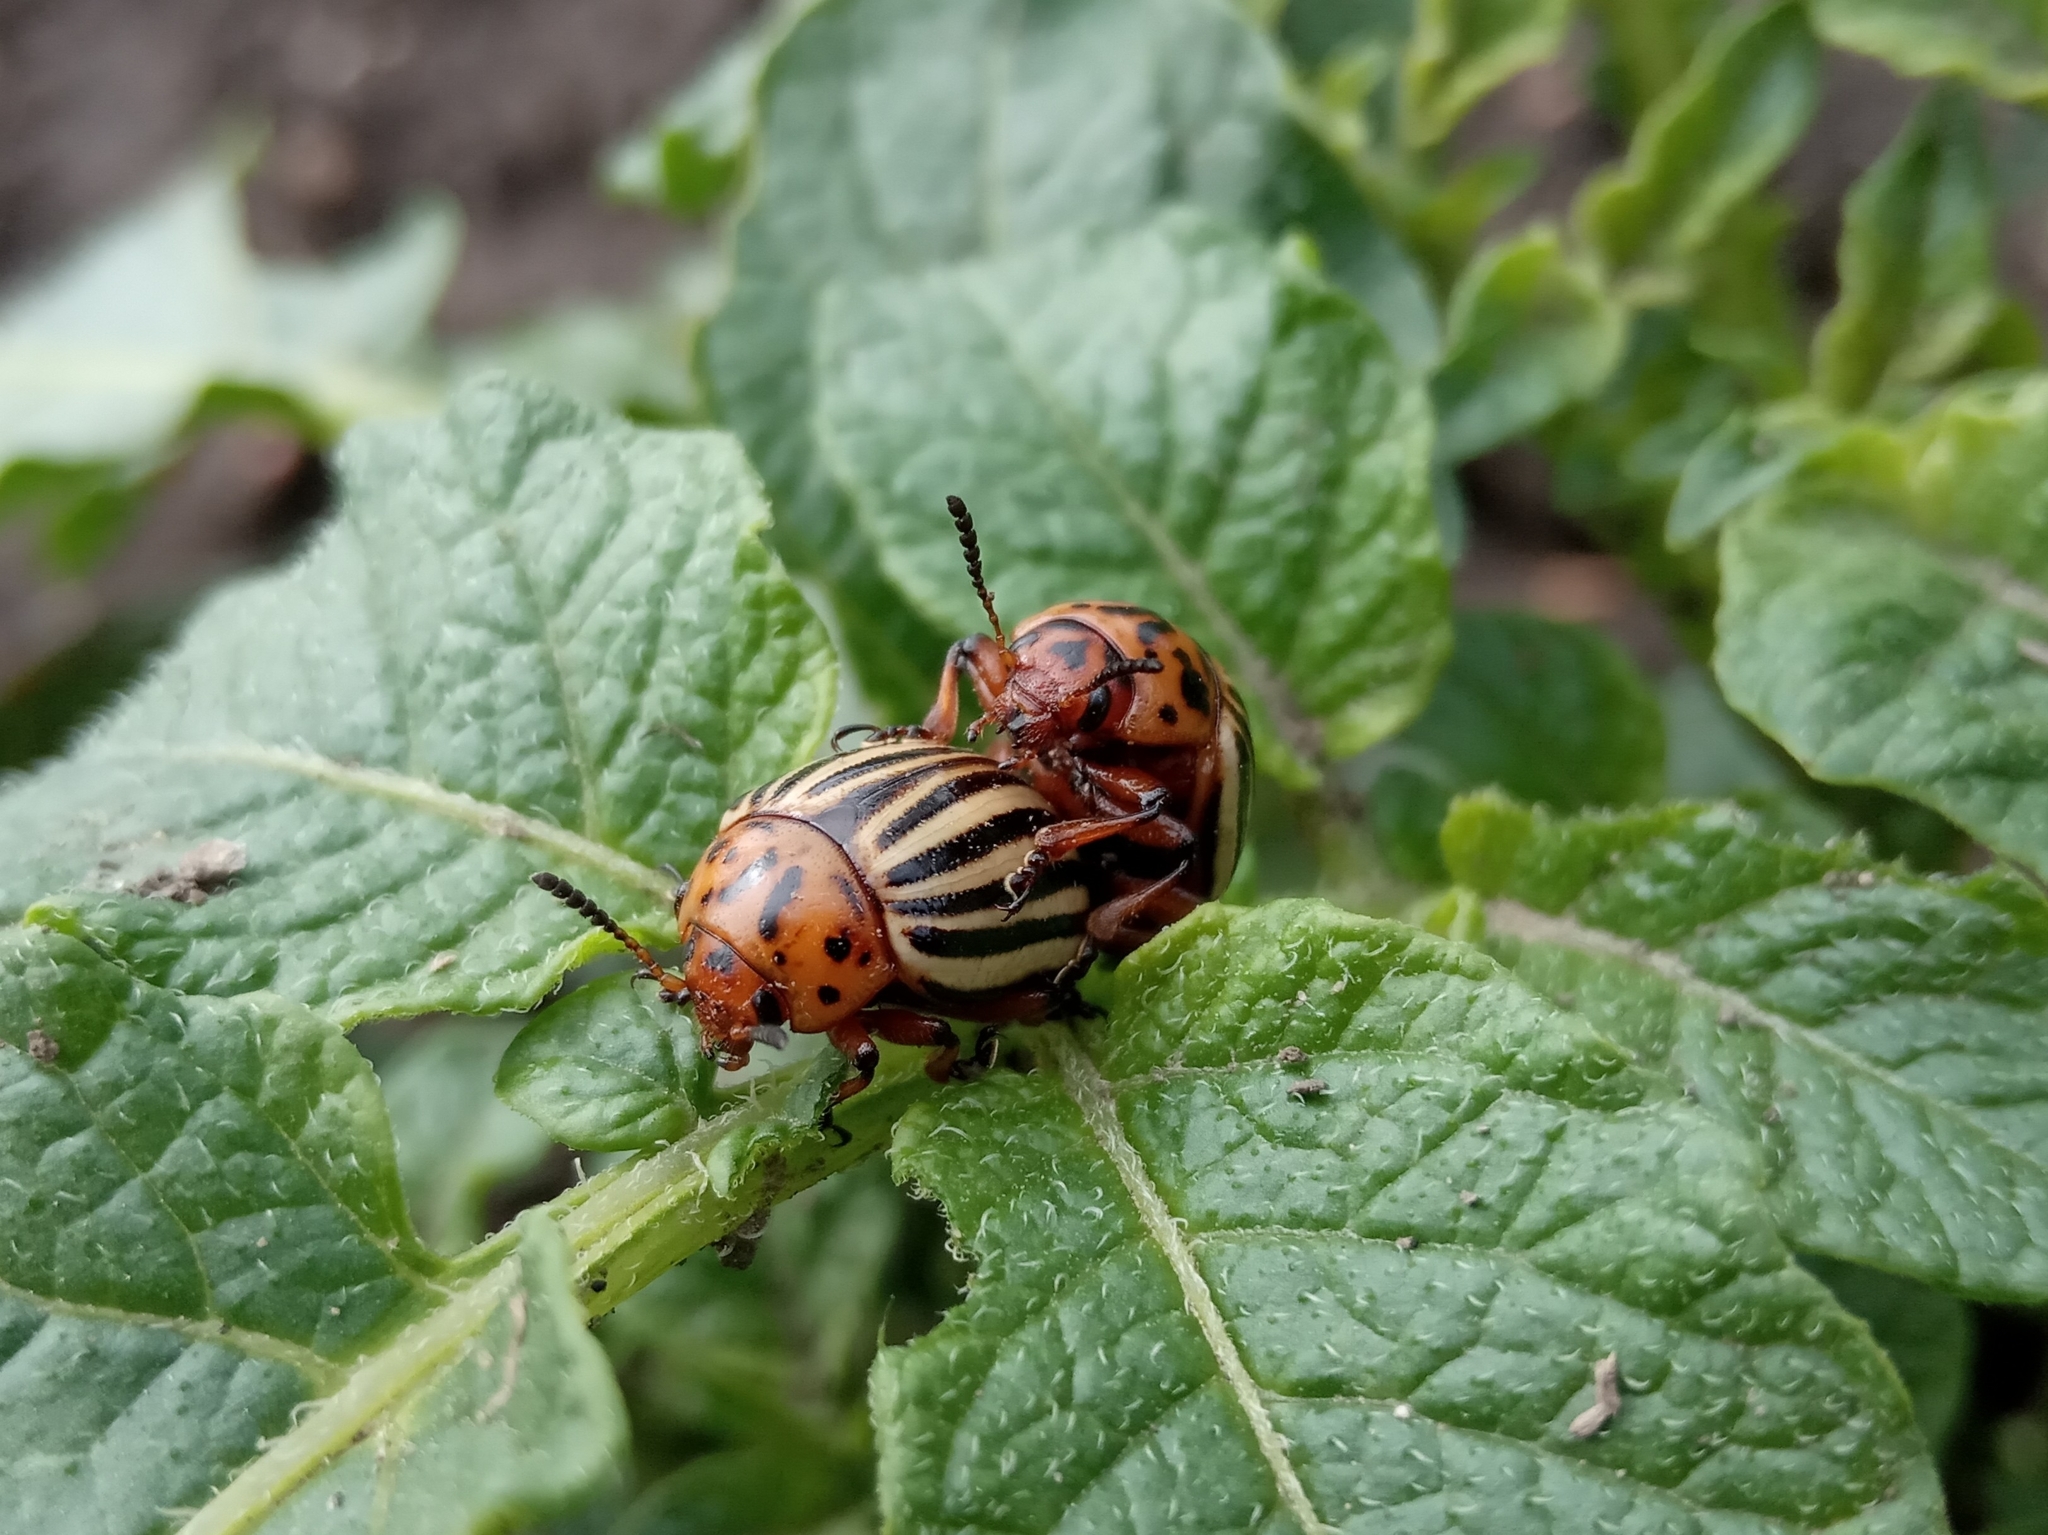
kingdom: Animalia
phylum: Arthropoda
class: Insecta
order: Coleoptera
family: Chrysomelidae
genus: Leptinotarsa
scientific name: Leptinotarsa decemlineata
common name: Colorado potato beetle
